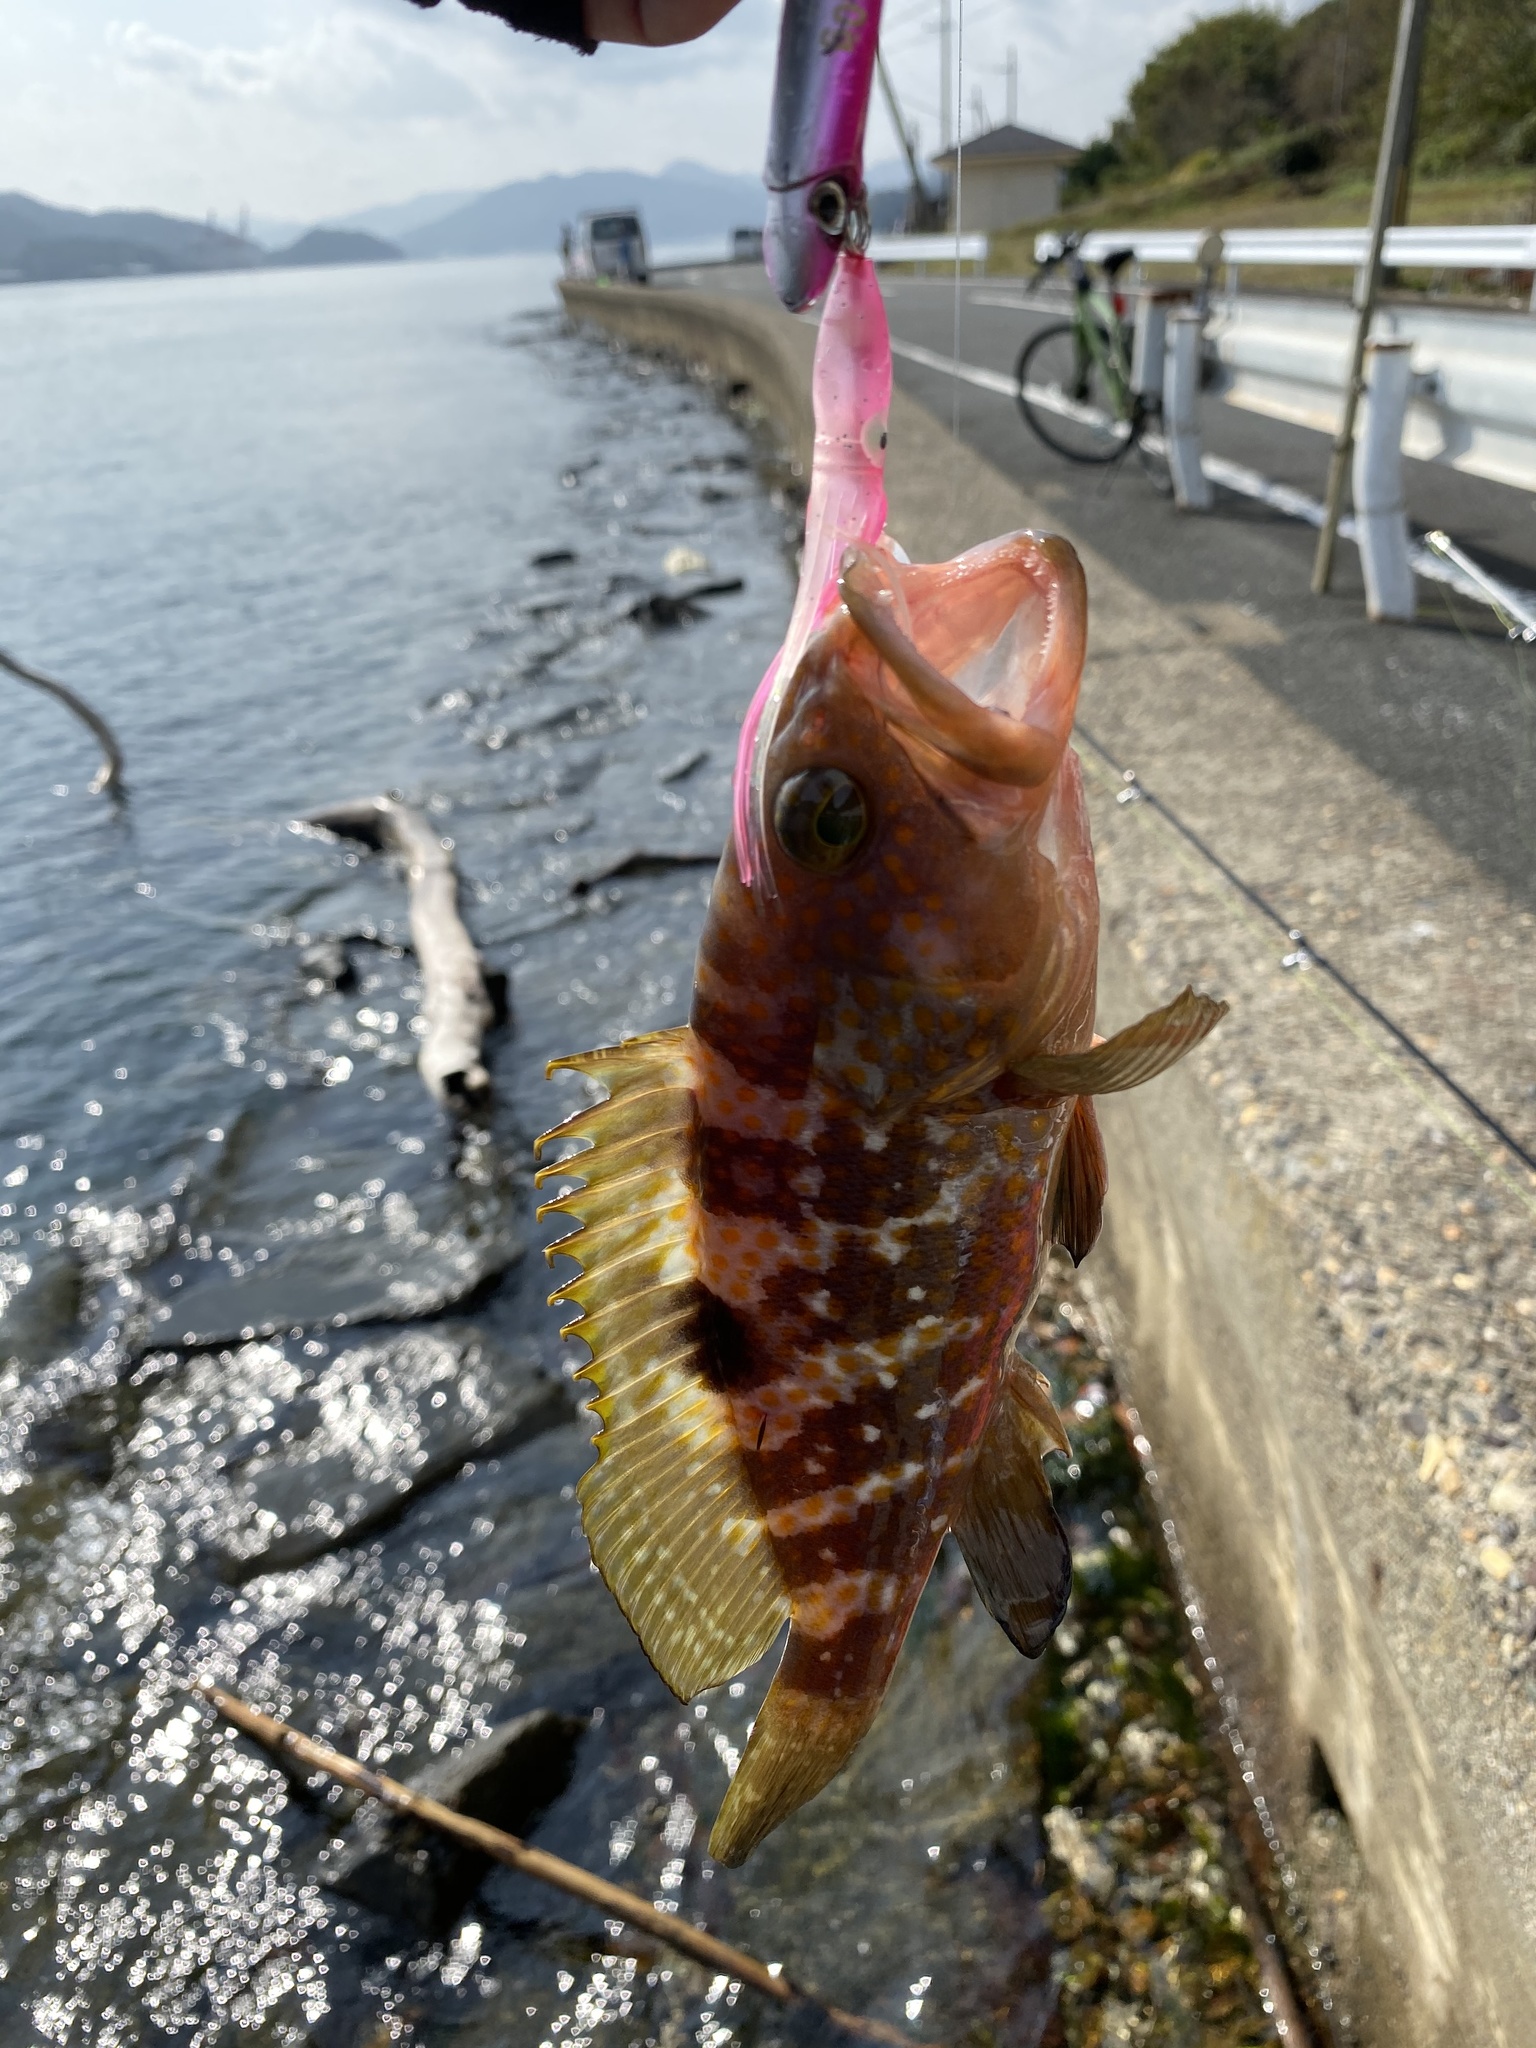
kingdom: Animalia
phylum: Chordata
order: Perciformes
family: Serranidae
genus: Epinephelus
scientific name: Epinephelus akaara
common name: Hong kong grouper
